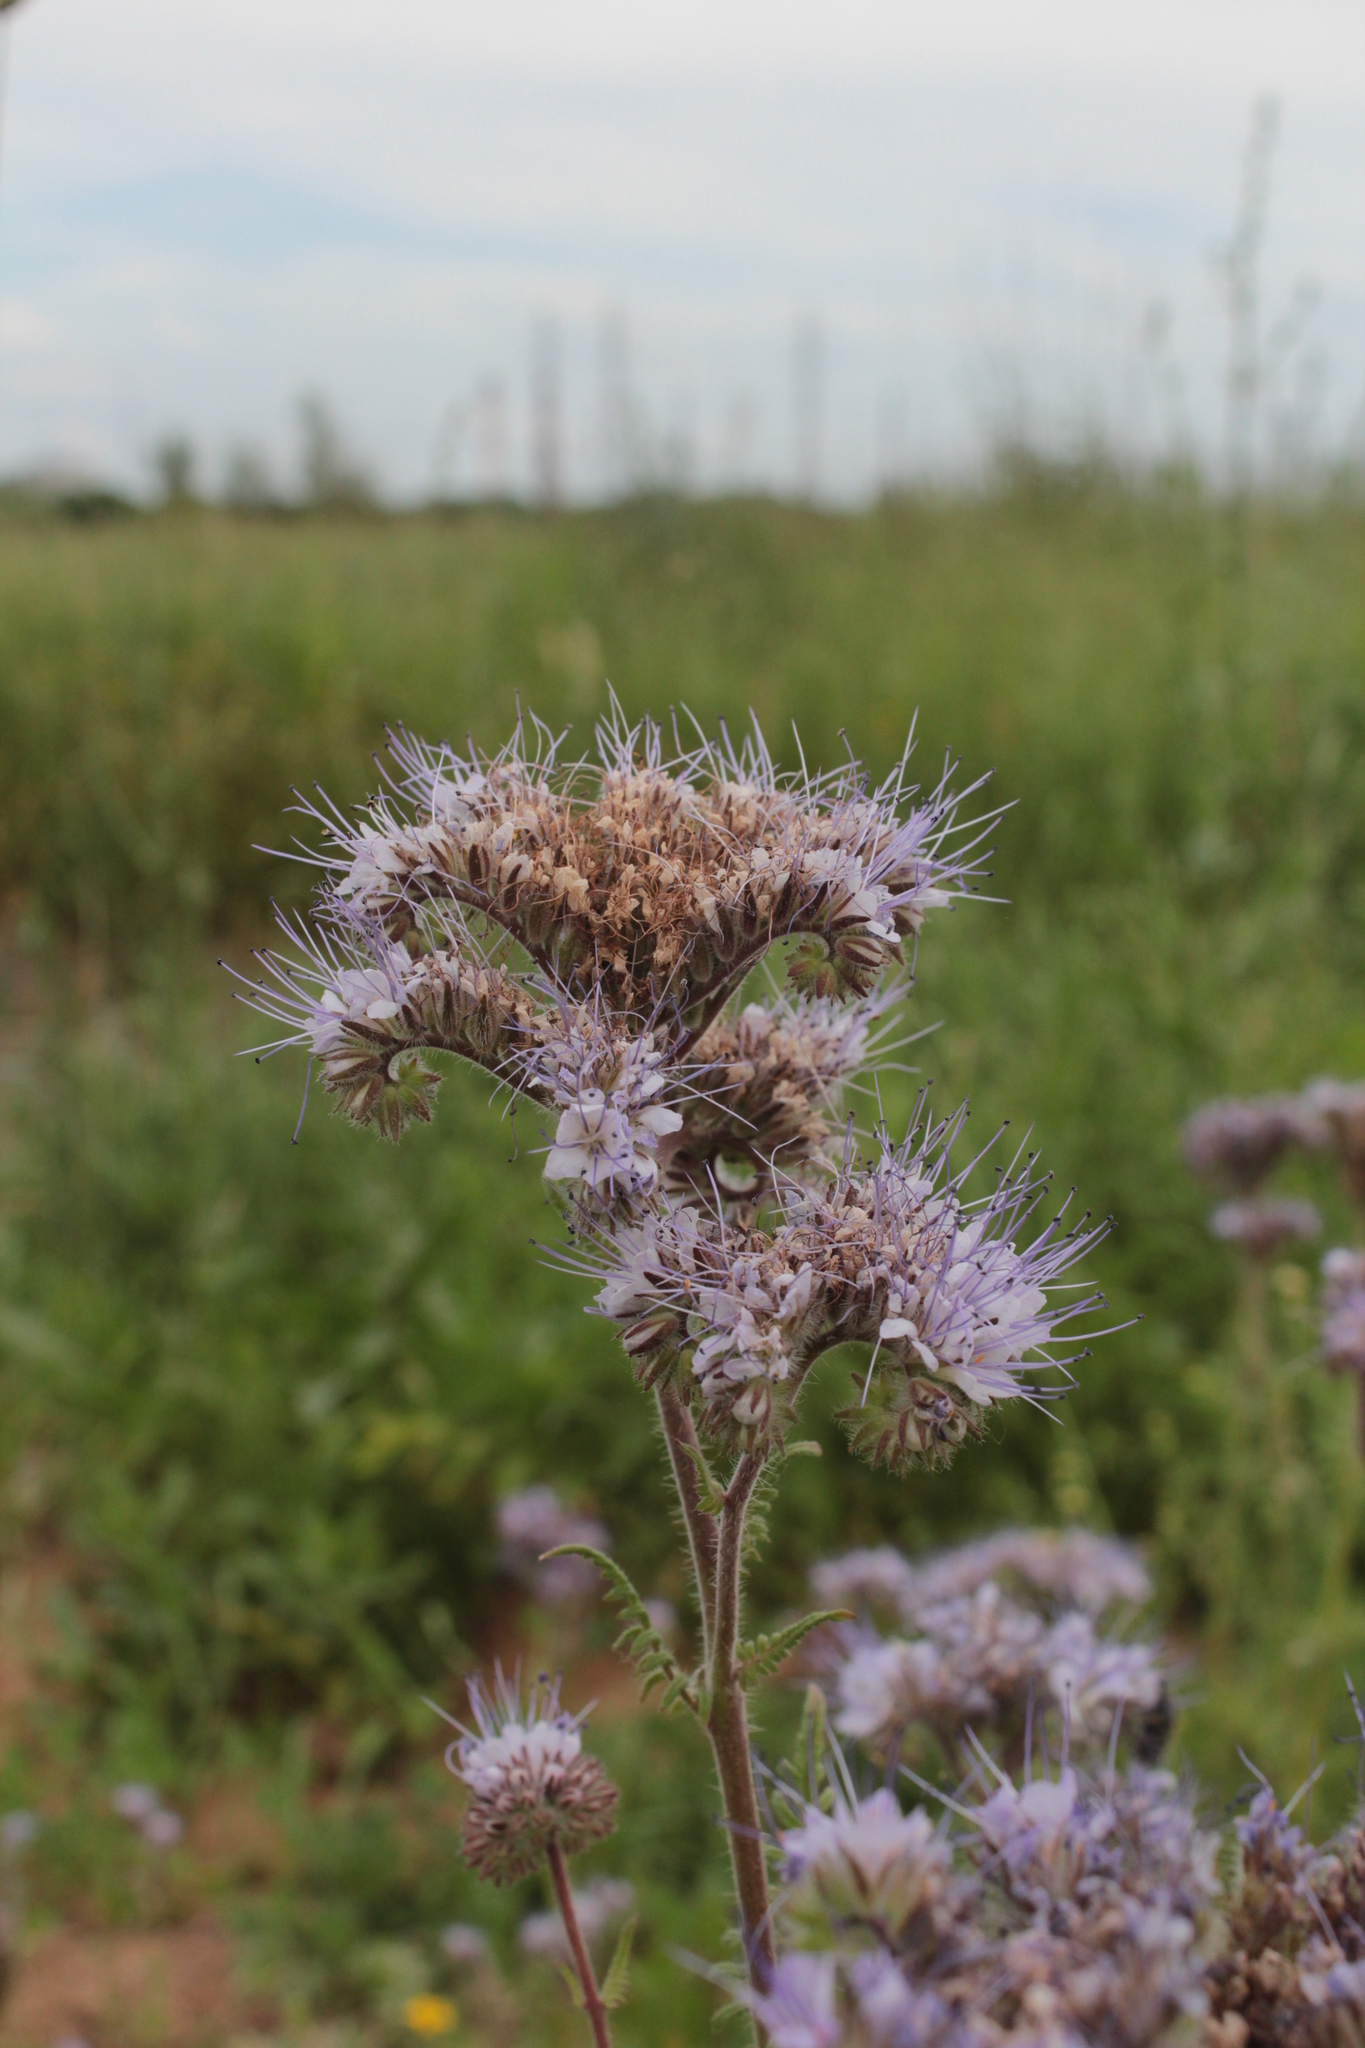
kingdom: Plantae
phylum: Tracheophyta
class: Magnoliopsida
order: Boraginales
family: Hydrophyllaceae
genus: Phacelia
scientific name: Phacelia tanacetifolia
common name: Phacelia
